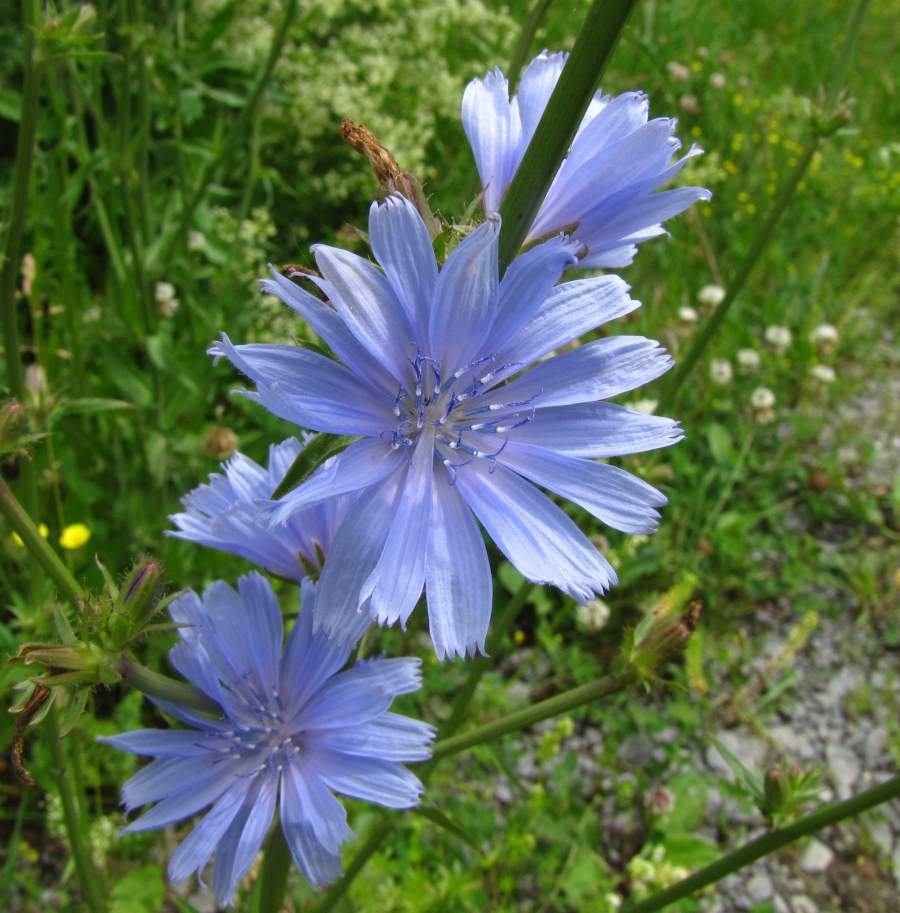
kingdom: Plantae
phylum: Tracheophyta
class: Magnoliopsida
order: Asterales
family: Asteraceae
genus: Cichorium
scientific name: Cichorium intybus
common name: Chicory
